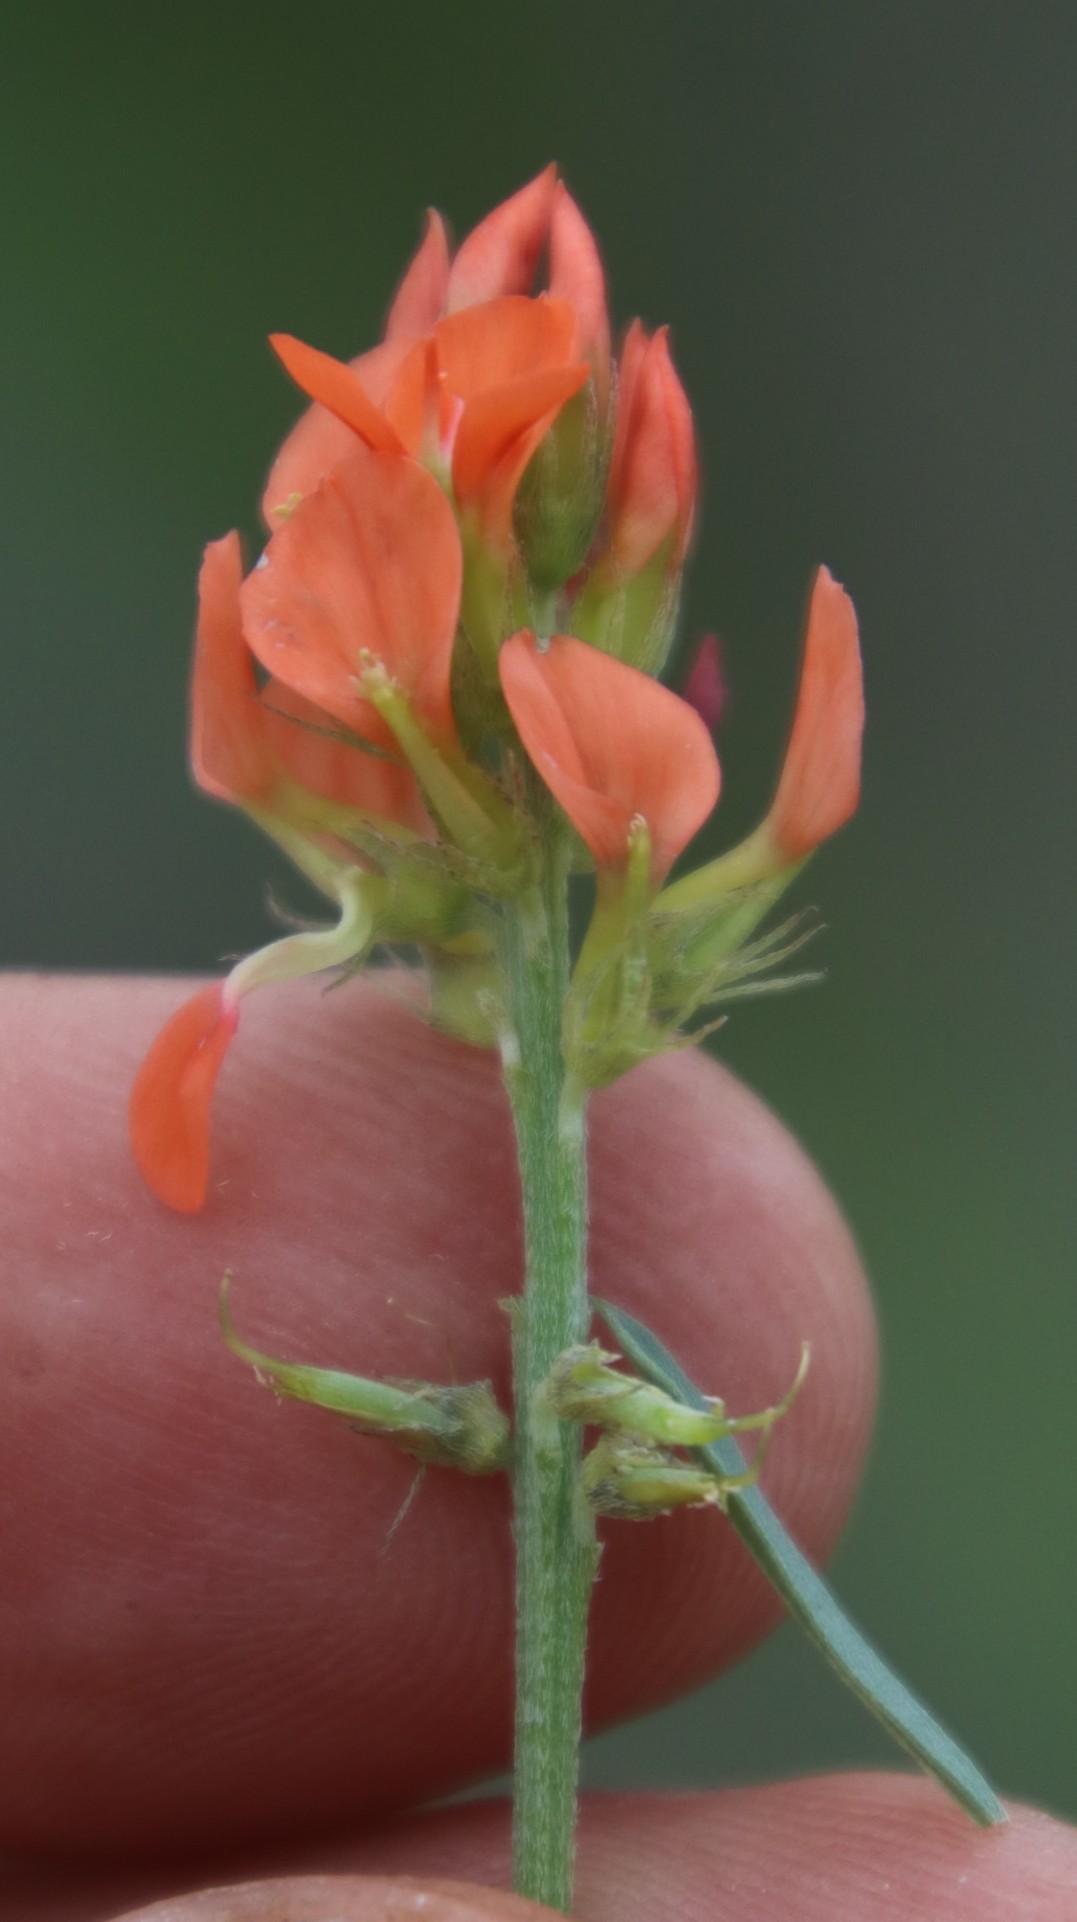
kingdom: Plantae
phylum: Tracheophyta
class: Magnoliopsida
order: Fabales
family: Fabaceae
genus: Indigastrum
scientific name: Indigastrum burkeanum
